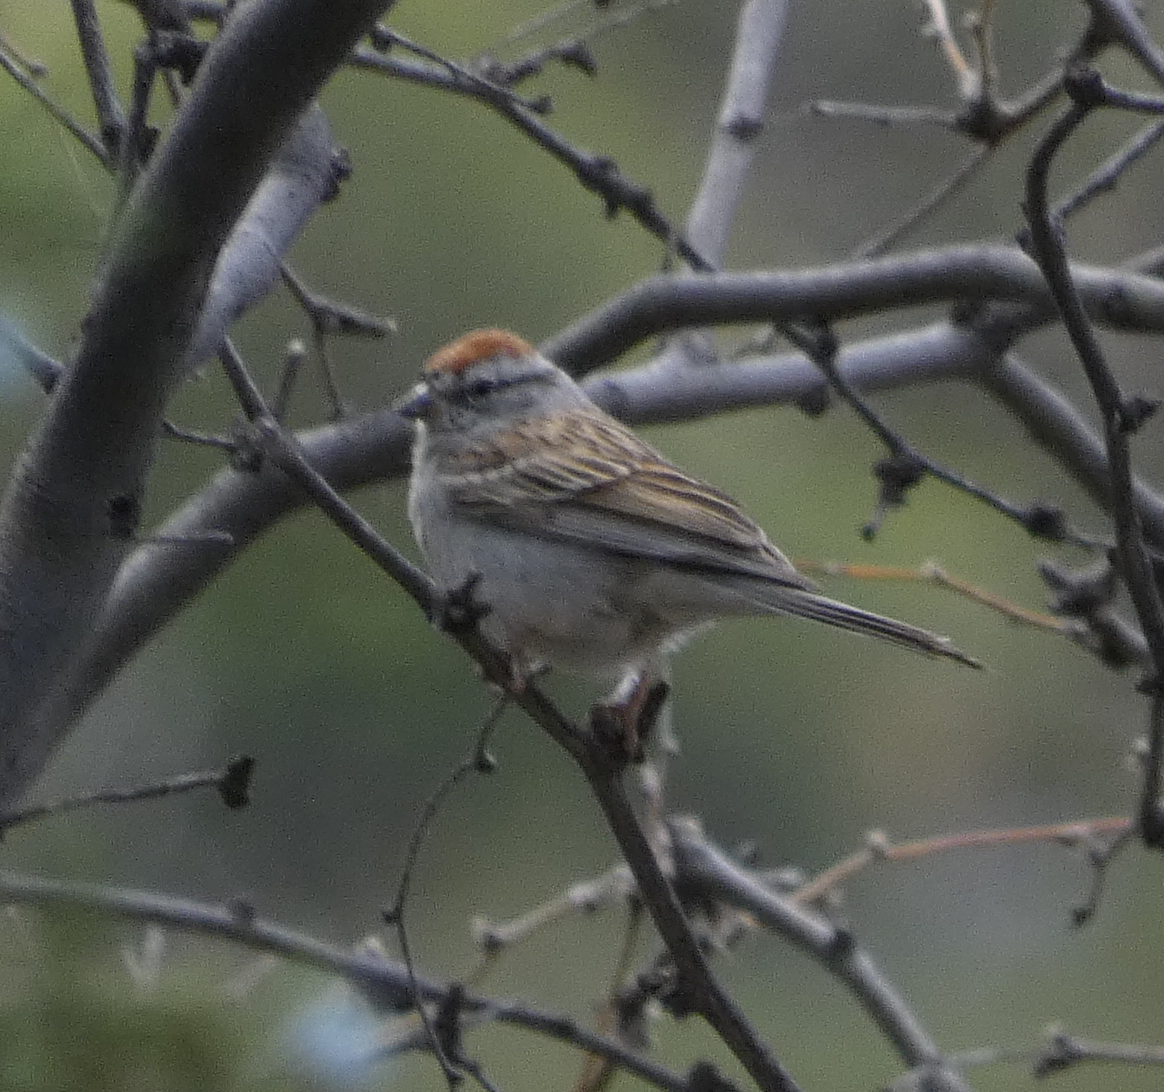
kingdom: Animalia
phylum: Chordata
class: Aves
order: Passeriformes
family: Passerellidae
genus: Spizella
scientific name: Spizella passerina
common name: Chipping sparrow
